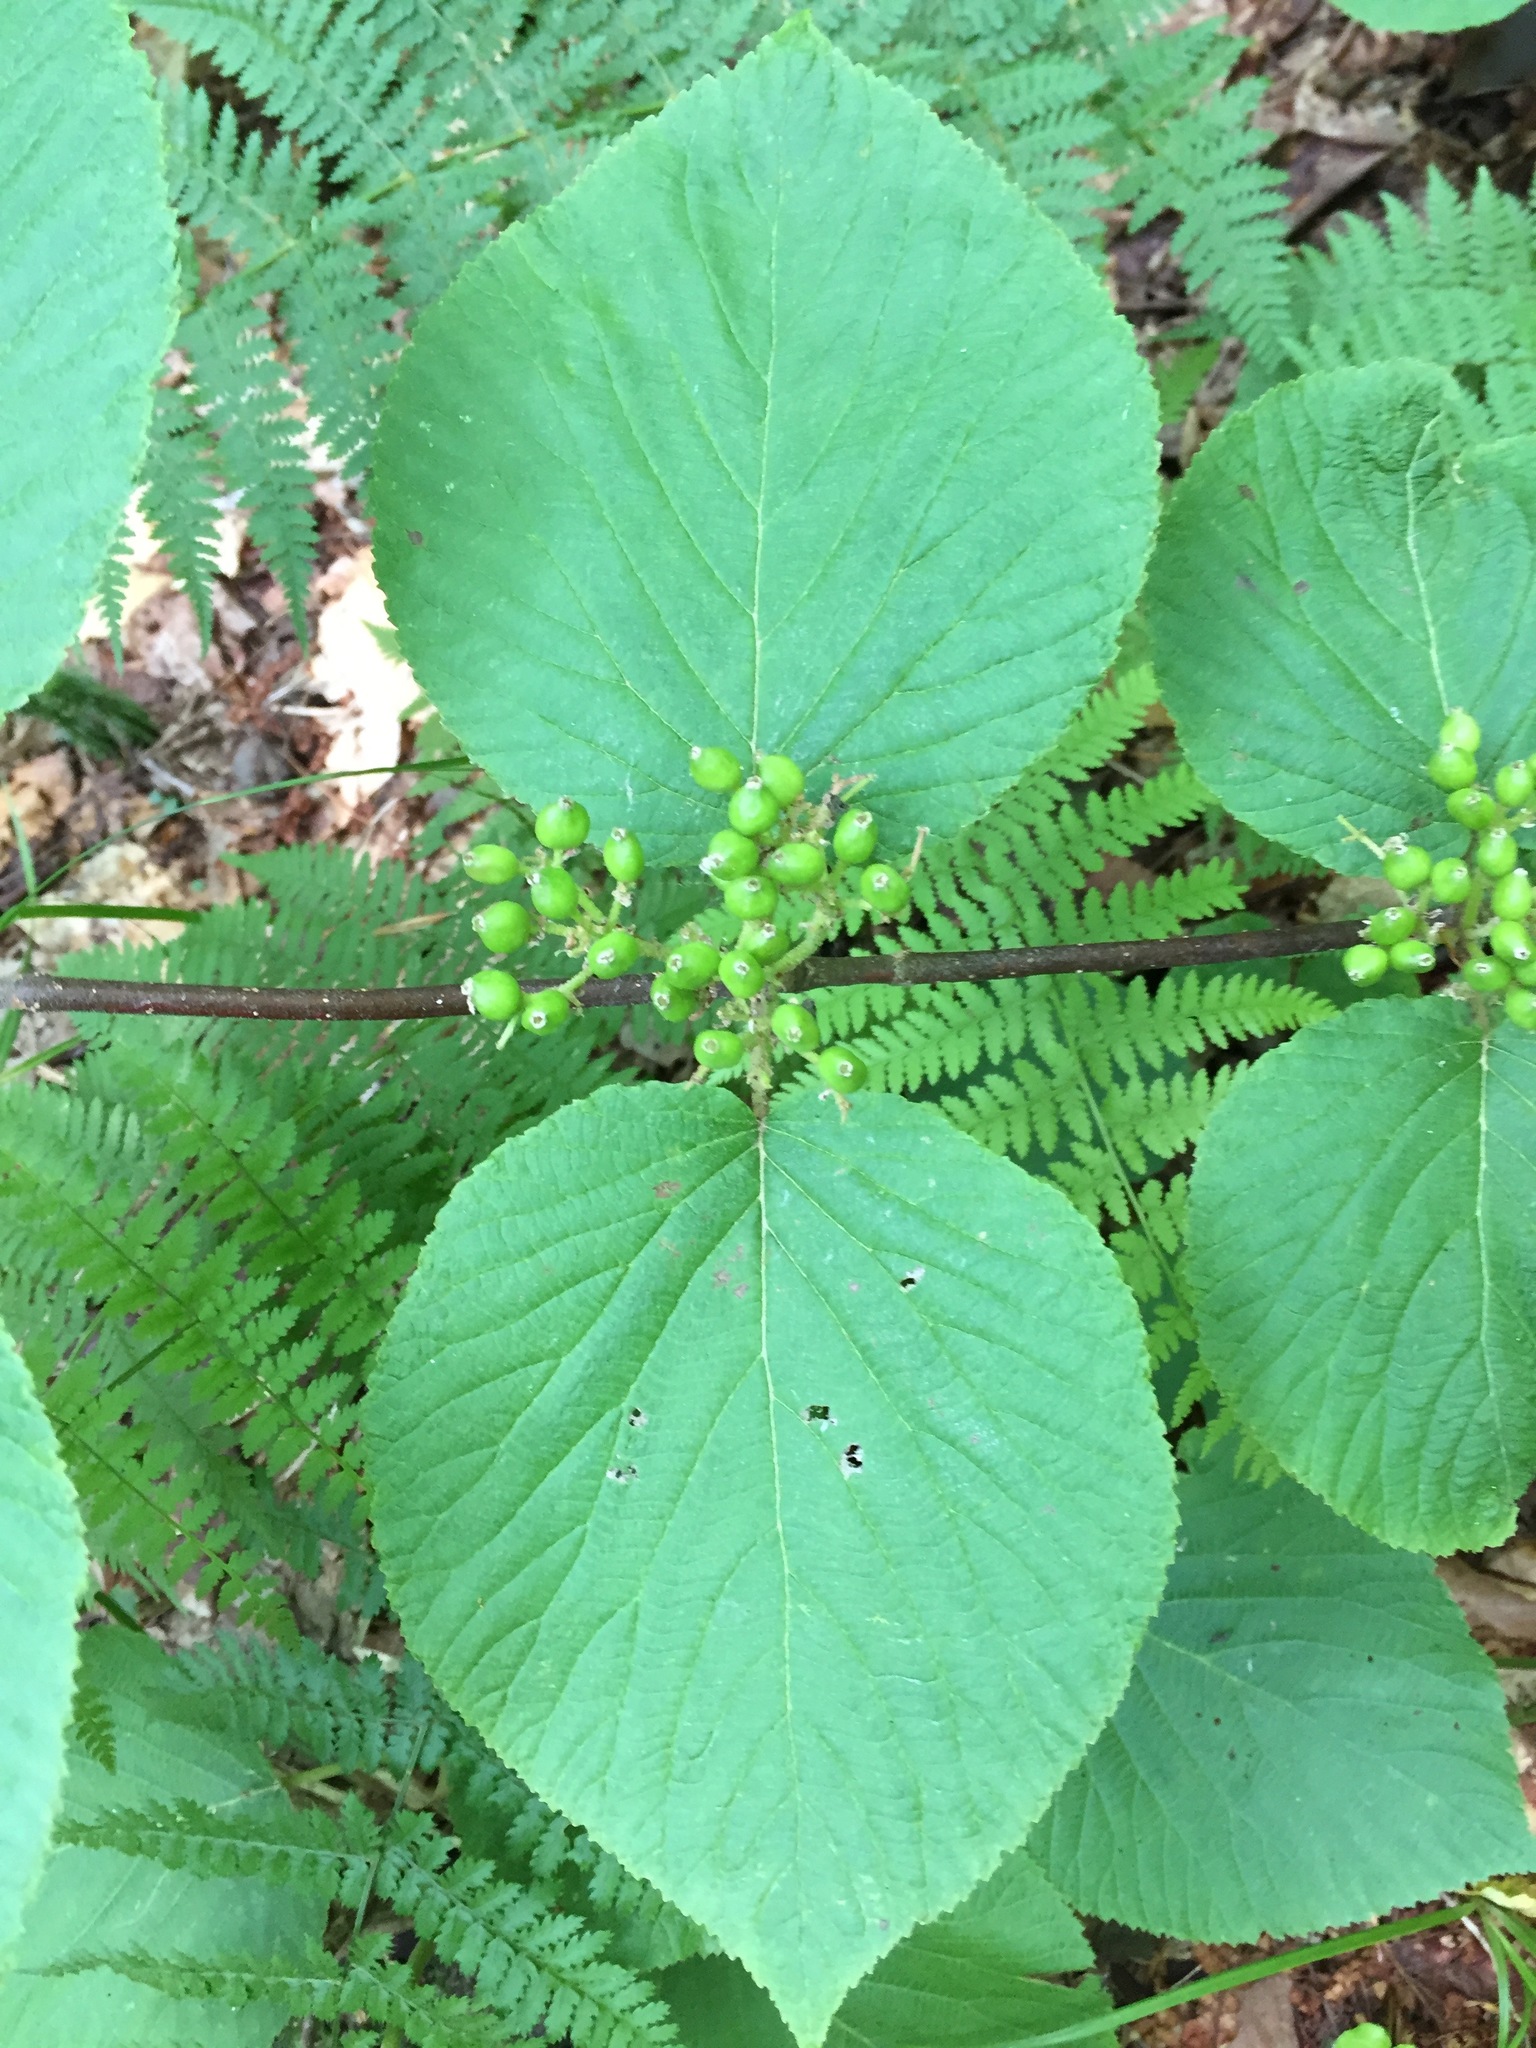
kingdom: Plantae
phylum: Tracheophyta
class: Magnoliopsida
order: Dipsacales
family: Viburnaceae
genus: Viburnum
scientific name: Viburnum lantanoides
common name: Hobblebush
